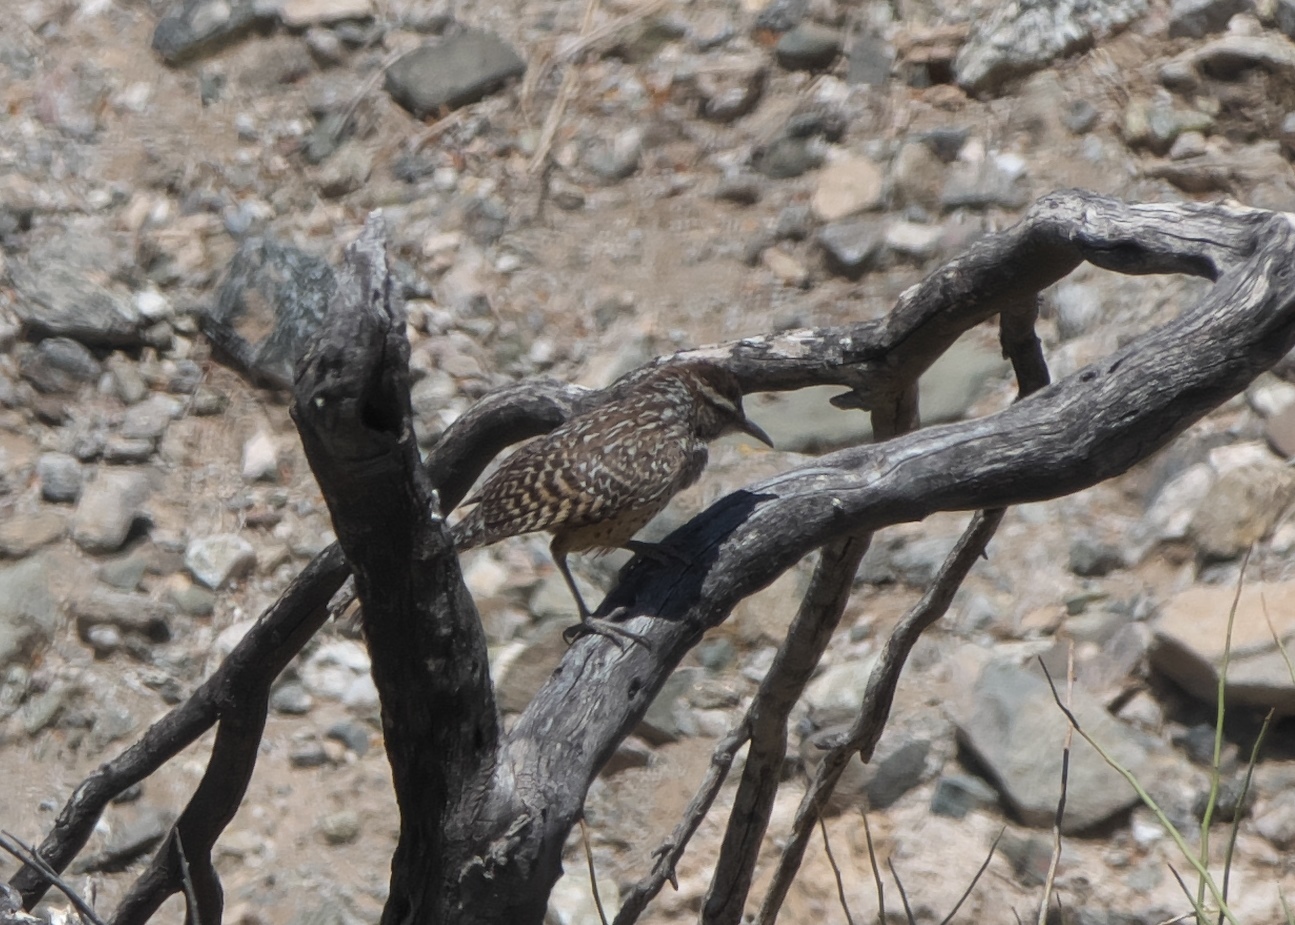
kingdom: Animalia
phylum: Chordata
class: Aves
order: Passeriformes
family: Troglodytidae
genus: Campylorhynchus
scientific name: Campylorhynchus brunneicapillus
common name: Cactus wren
